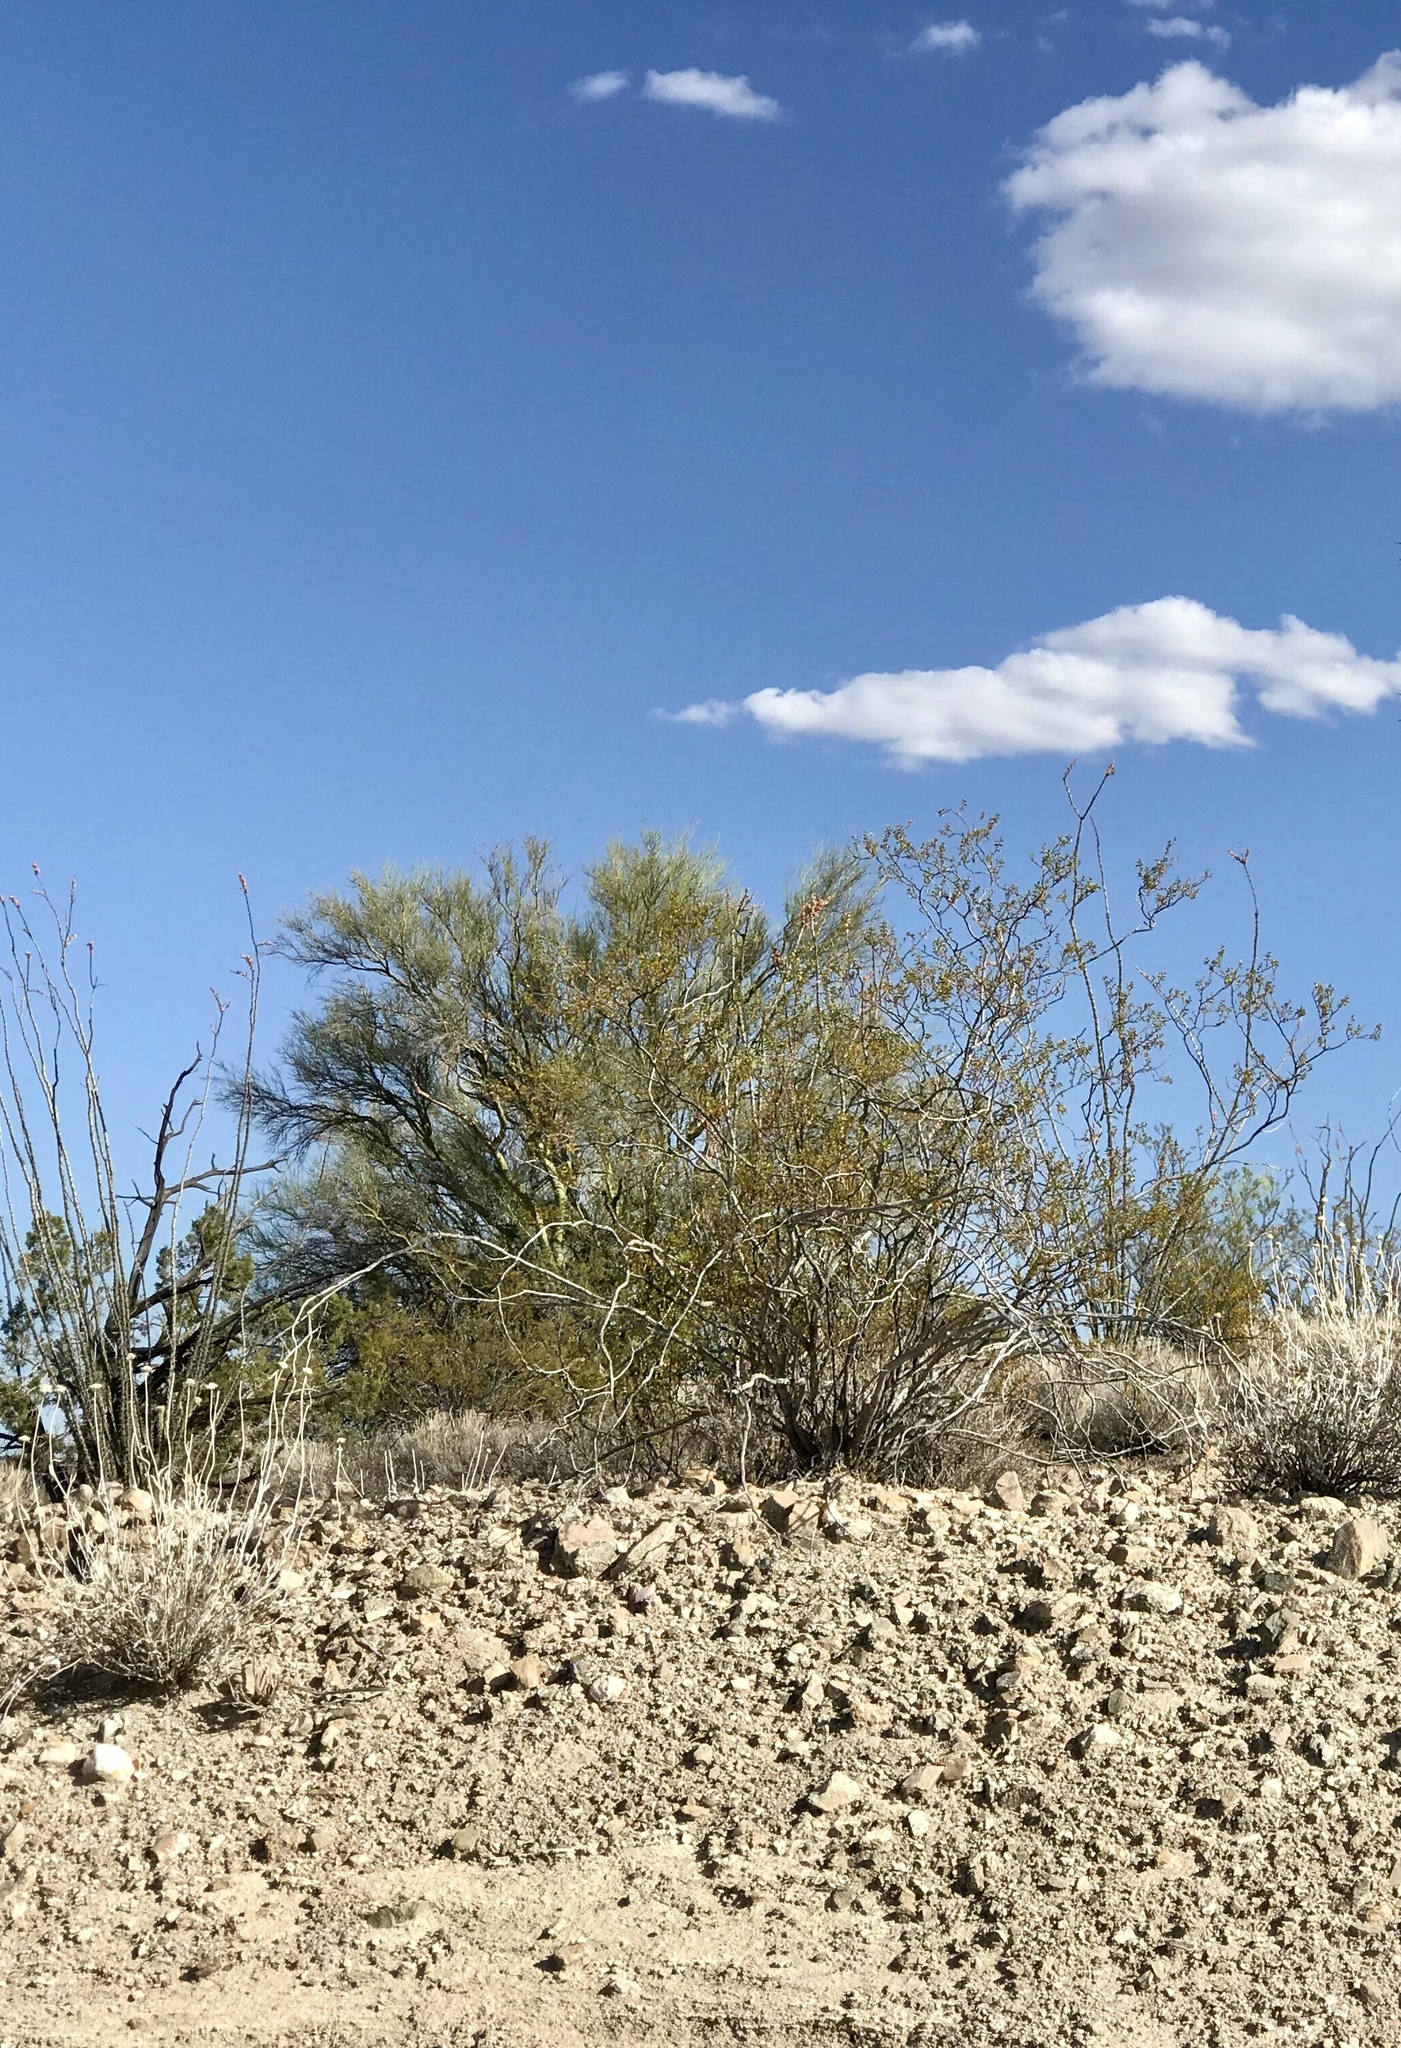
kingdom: Plantae
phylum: Tracheophyta
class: Magnoliopsida
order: Zygophyllales
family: Zygophyllaceae
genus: Larrea
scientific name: Larrea tridentata
